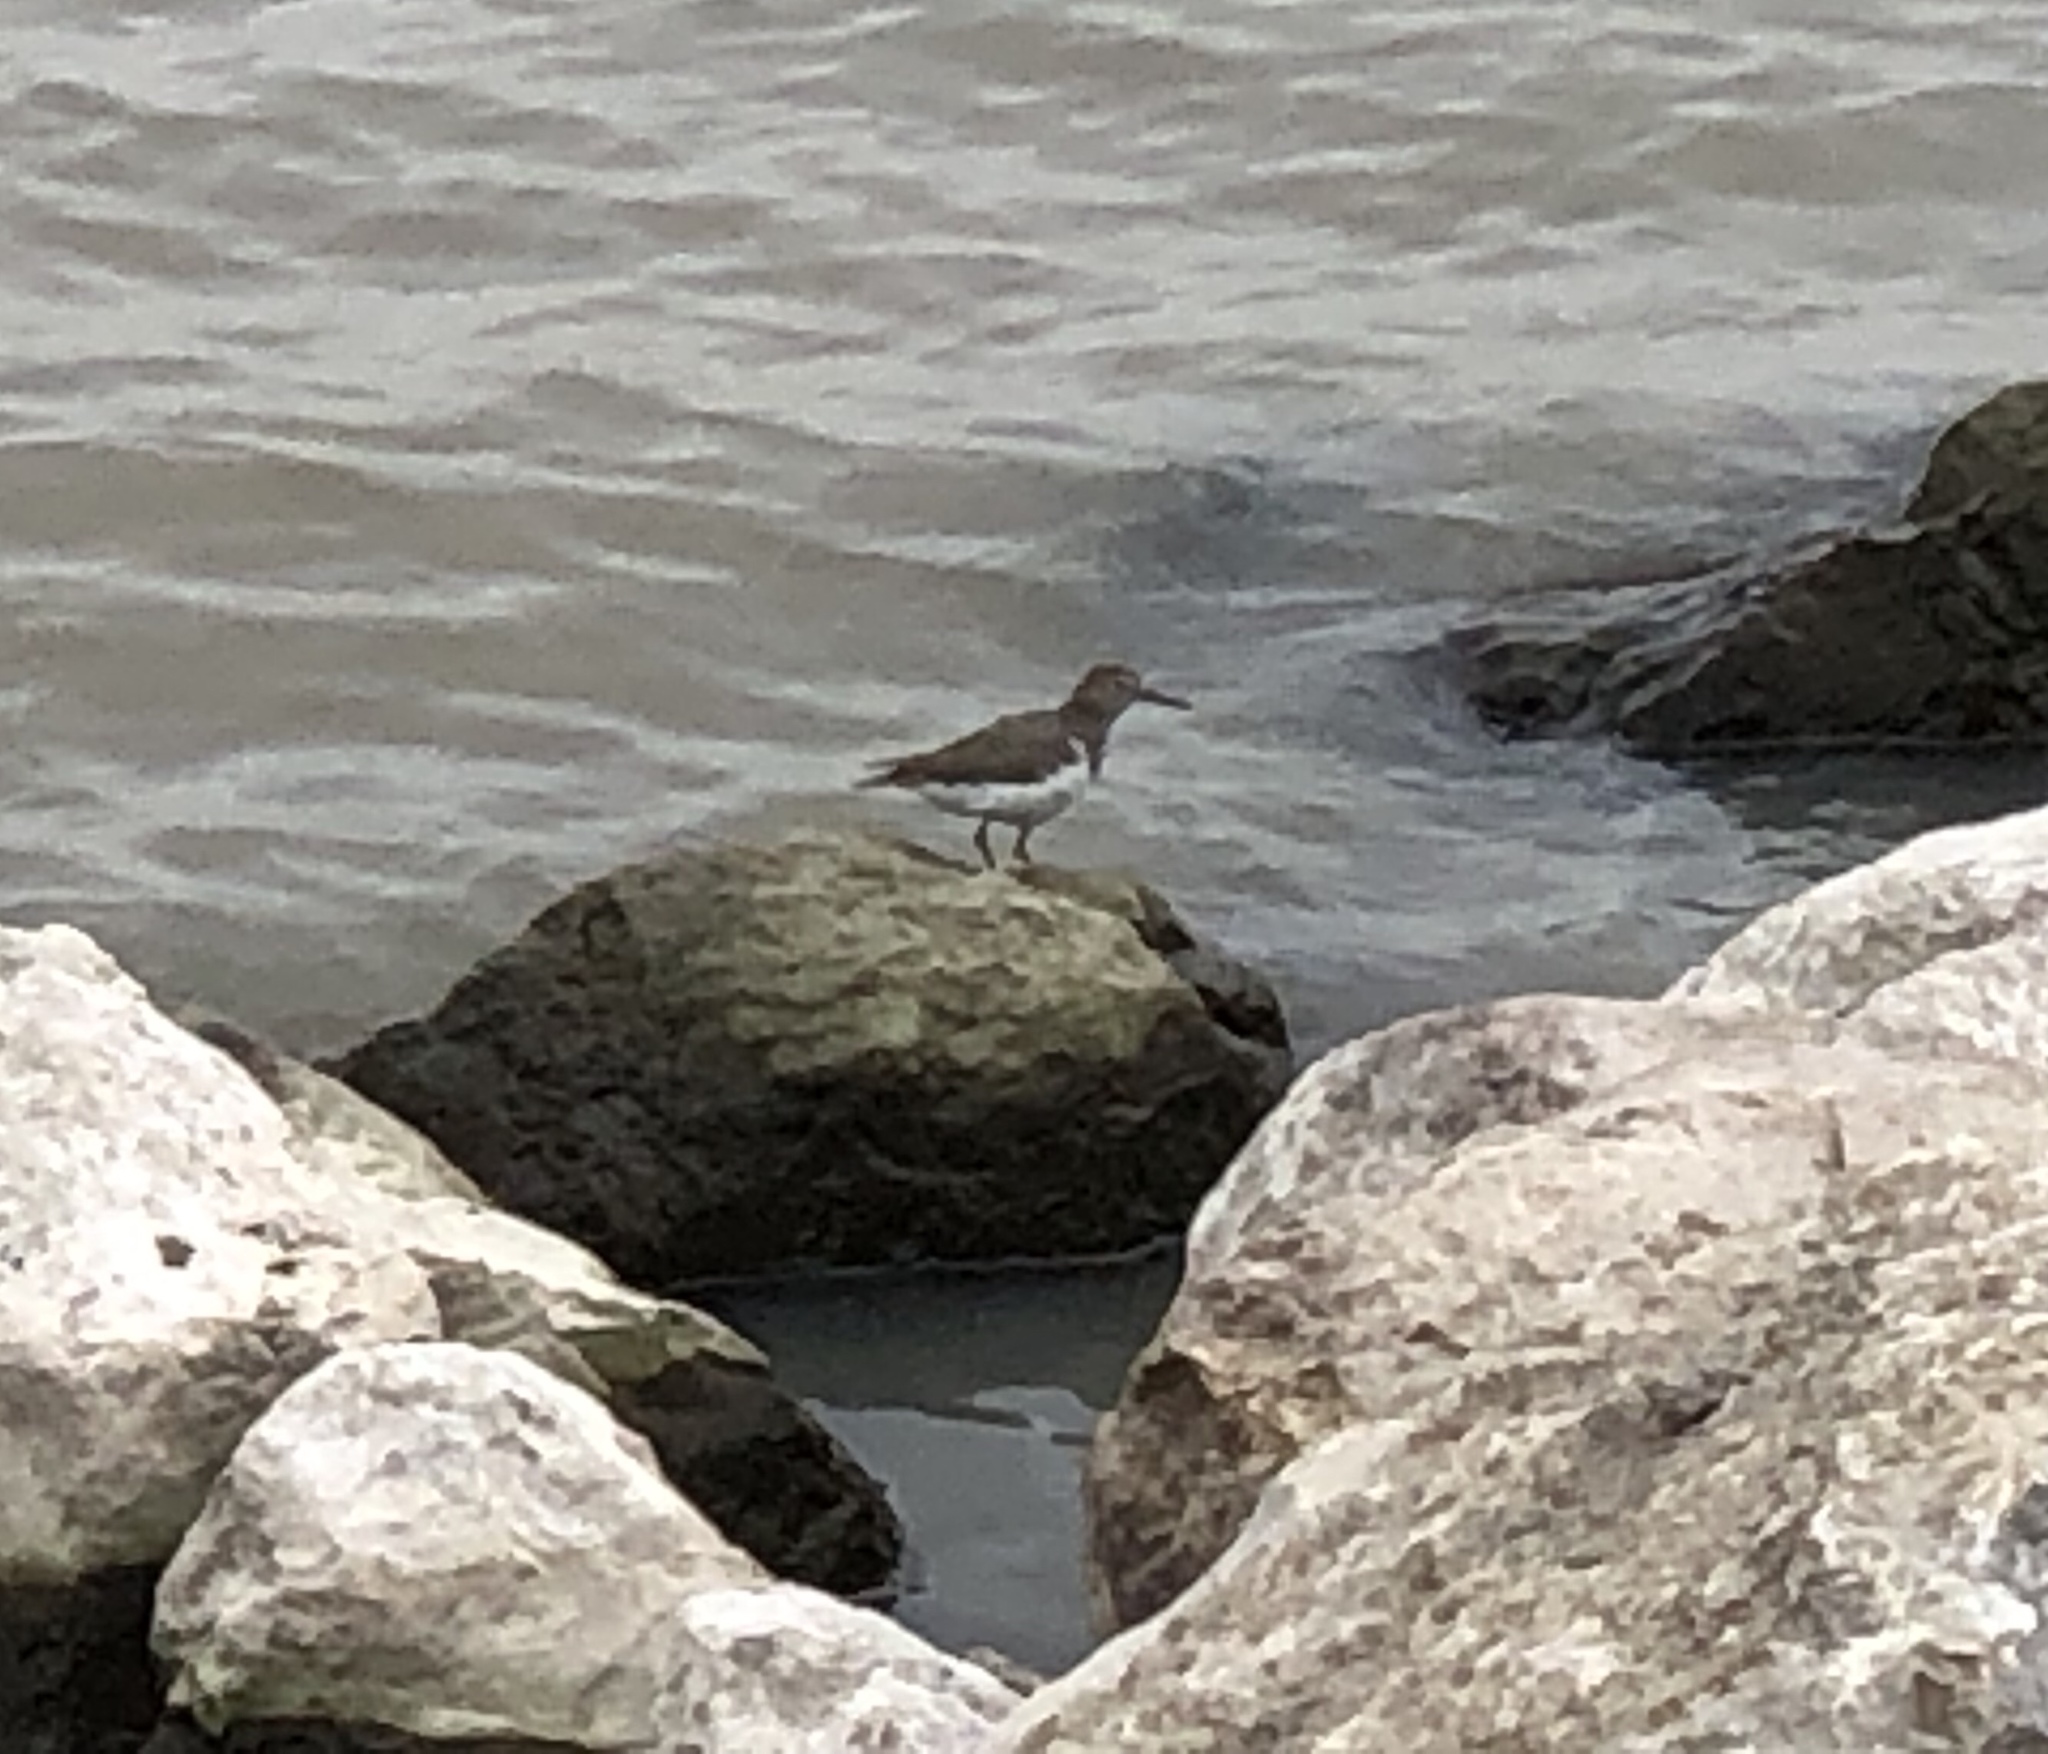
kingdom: Animalia
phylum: Chordata
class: Aves
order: Charadriiformes
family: Scolopacidae
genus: Actitis
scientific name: Actitis macularius
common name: Spotted sandpiper
